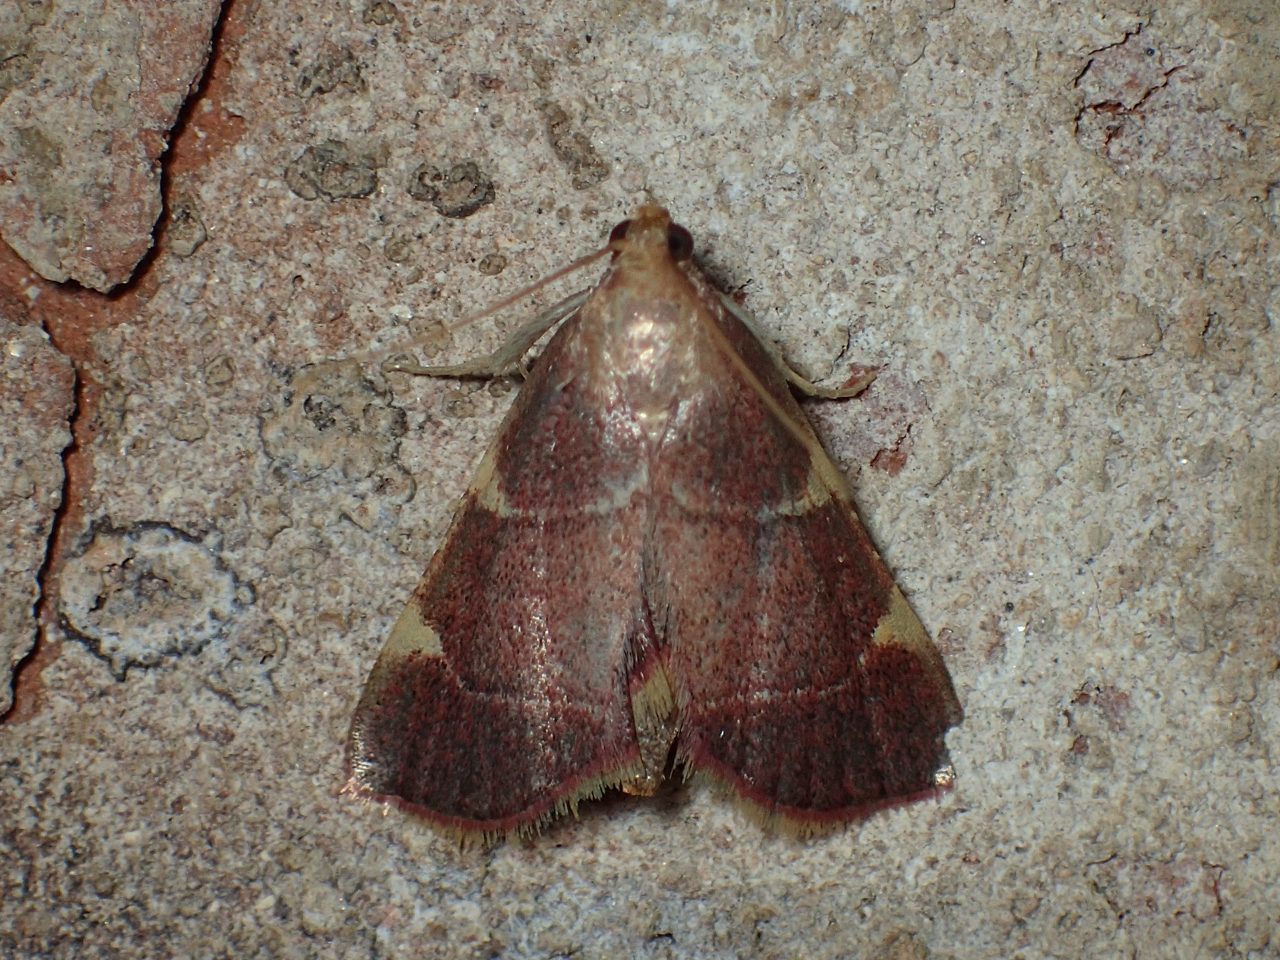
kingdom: Animalia
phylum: Arthropoda
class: Insecta
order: Lepidoptera
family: Pyralidae
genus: Hypsopygia
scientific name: Hypsopygia olinalis
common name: Yellow-fringed dolichomia moth
